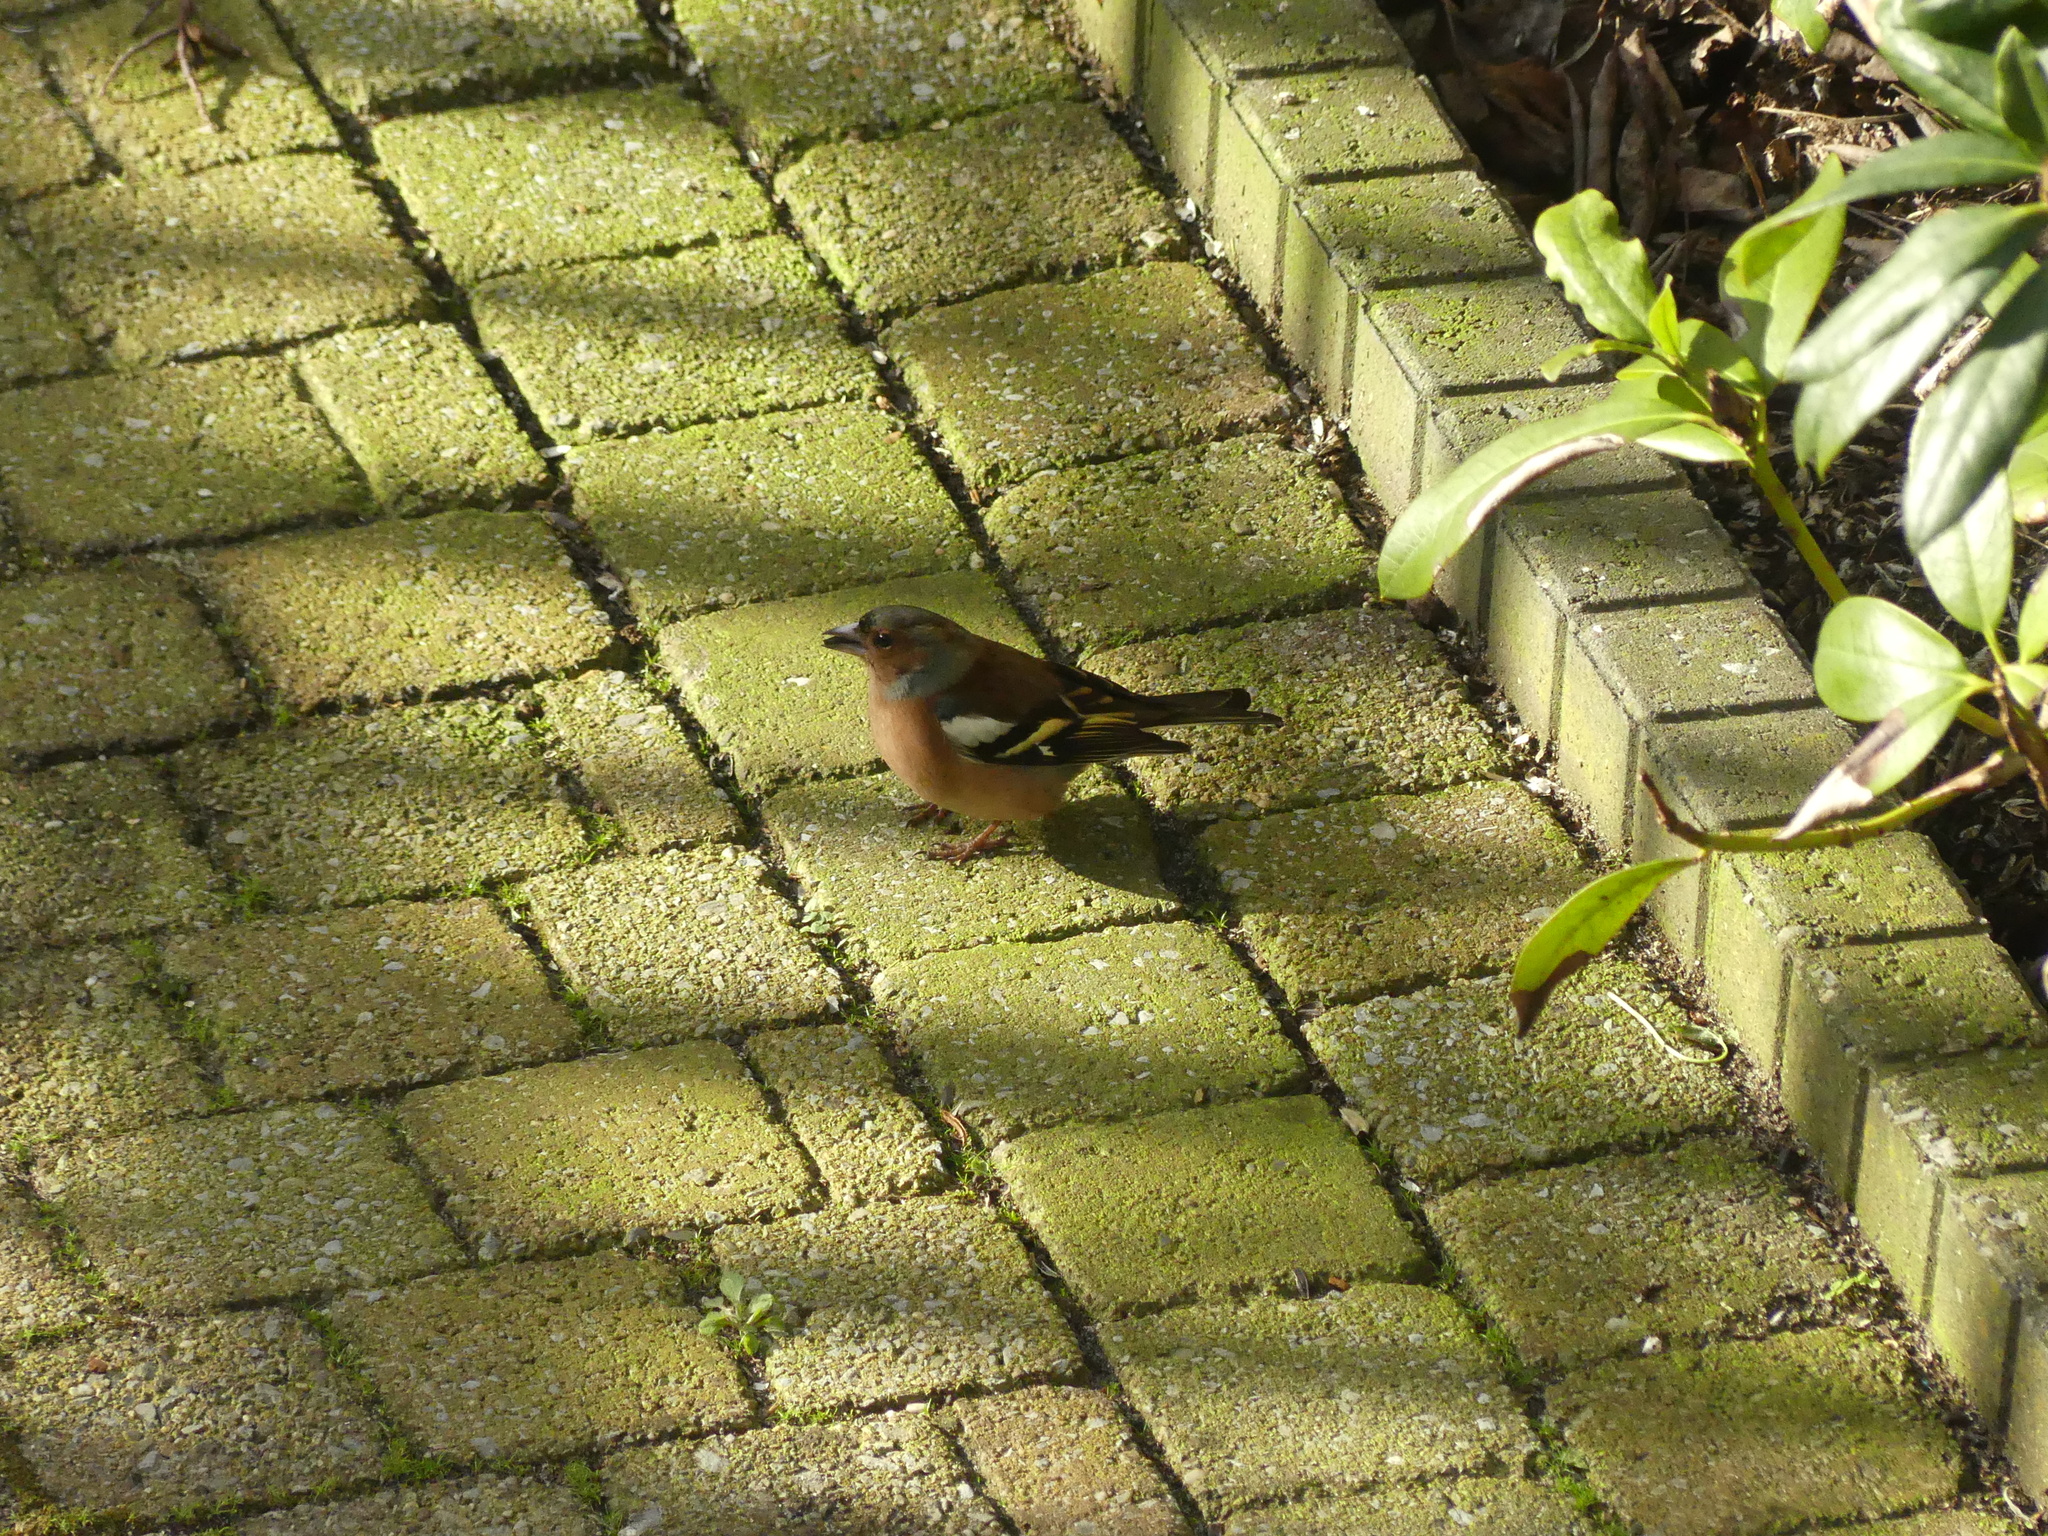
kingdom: Animalia
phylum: Chordata
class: Aves
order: Passeriformes
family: Fringillidae
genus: Fringilla
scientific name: Fringilla coelebs
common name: Common chaffinch
